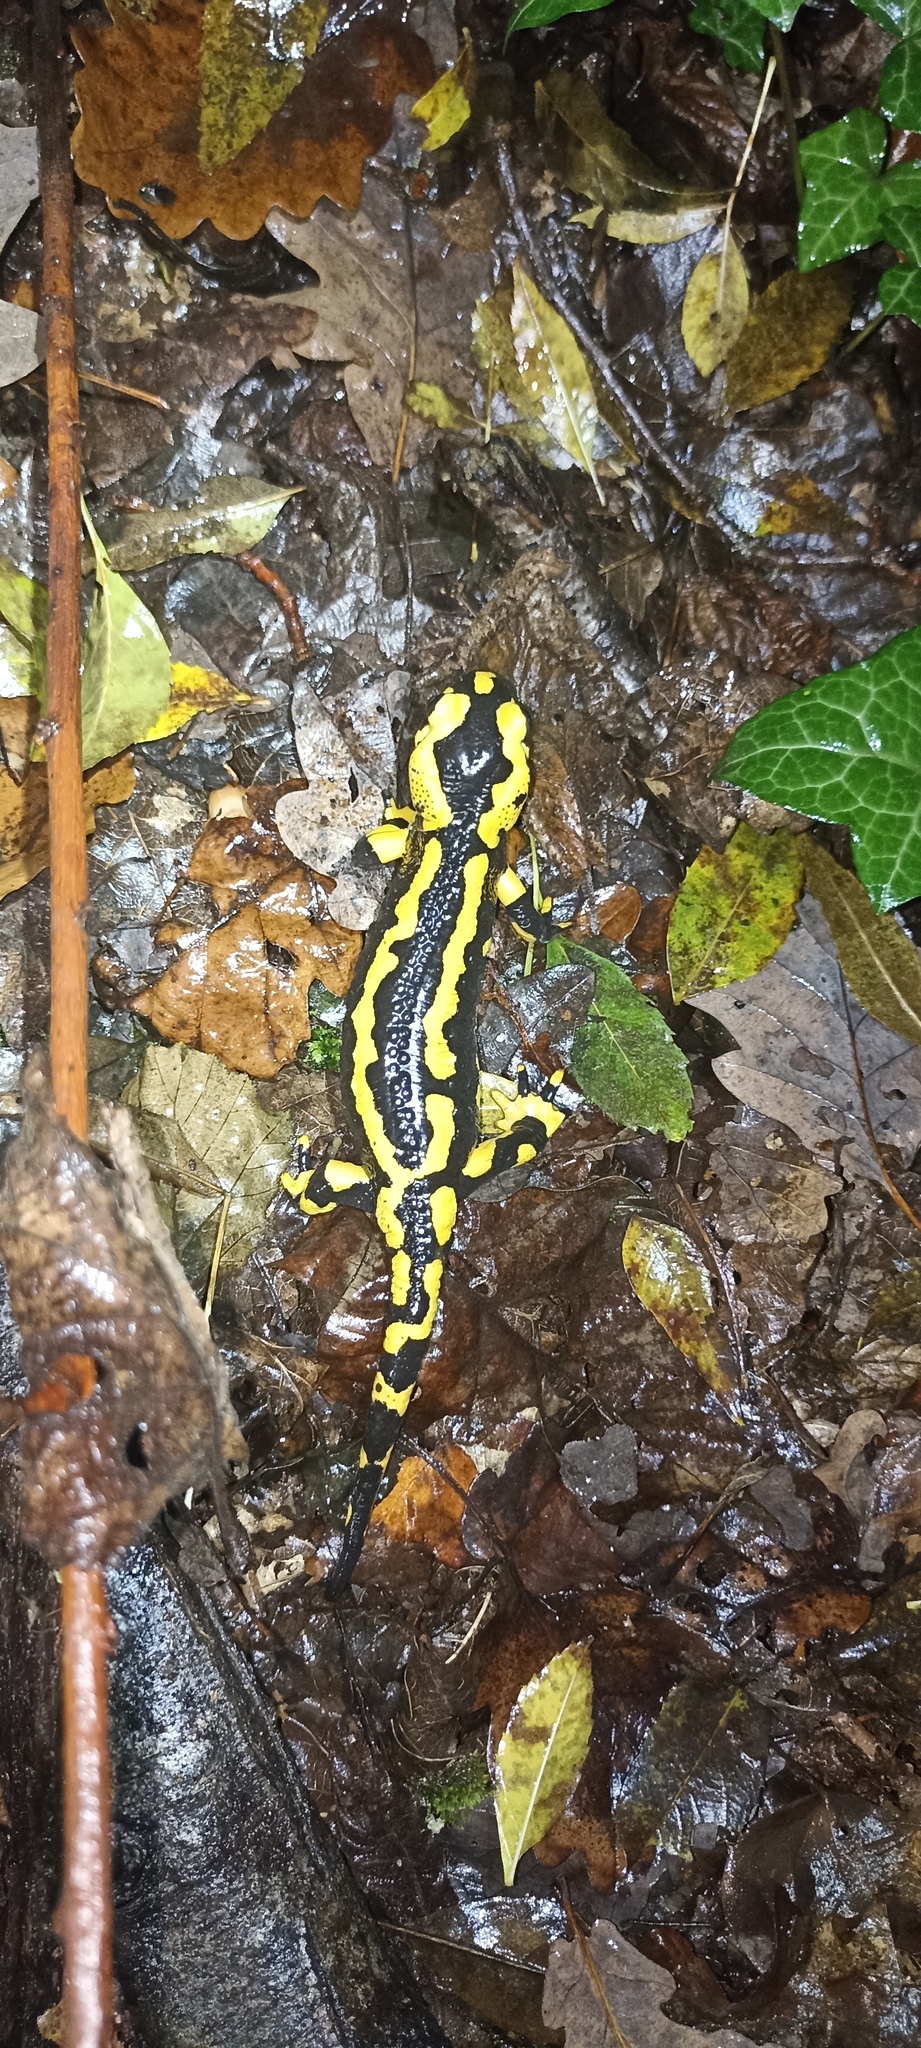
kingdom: Animalia
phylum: Chordata
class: Amphibia
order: Caudata
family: Salamandridae
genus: Salamandra
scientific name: Salamandra salamandra
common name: Fire salamander
